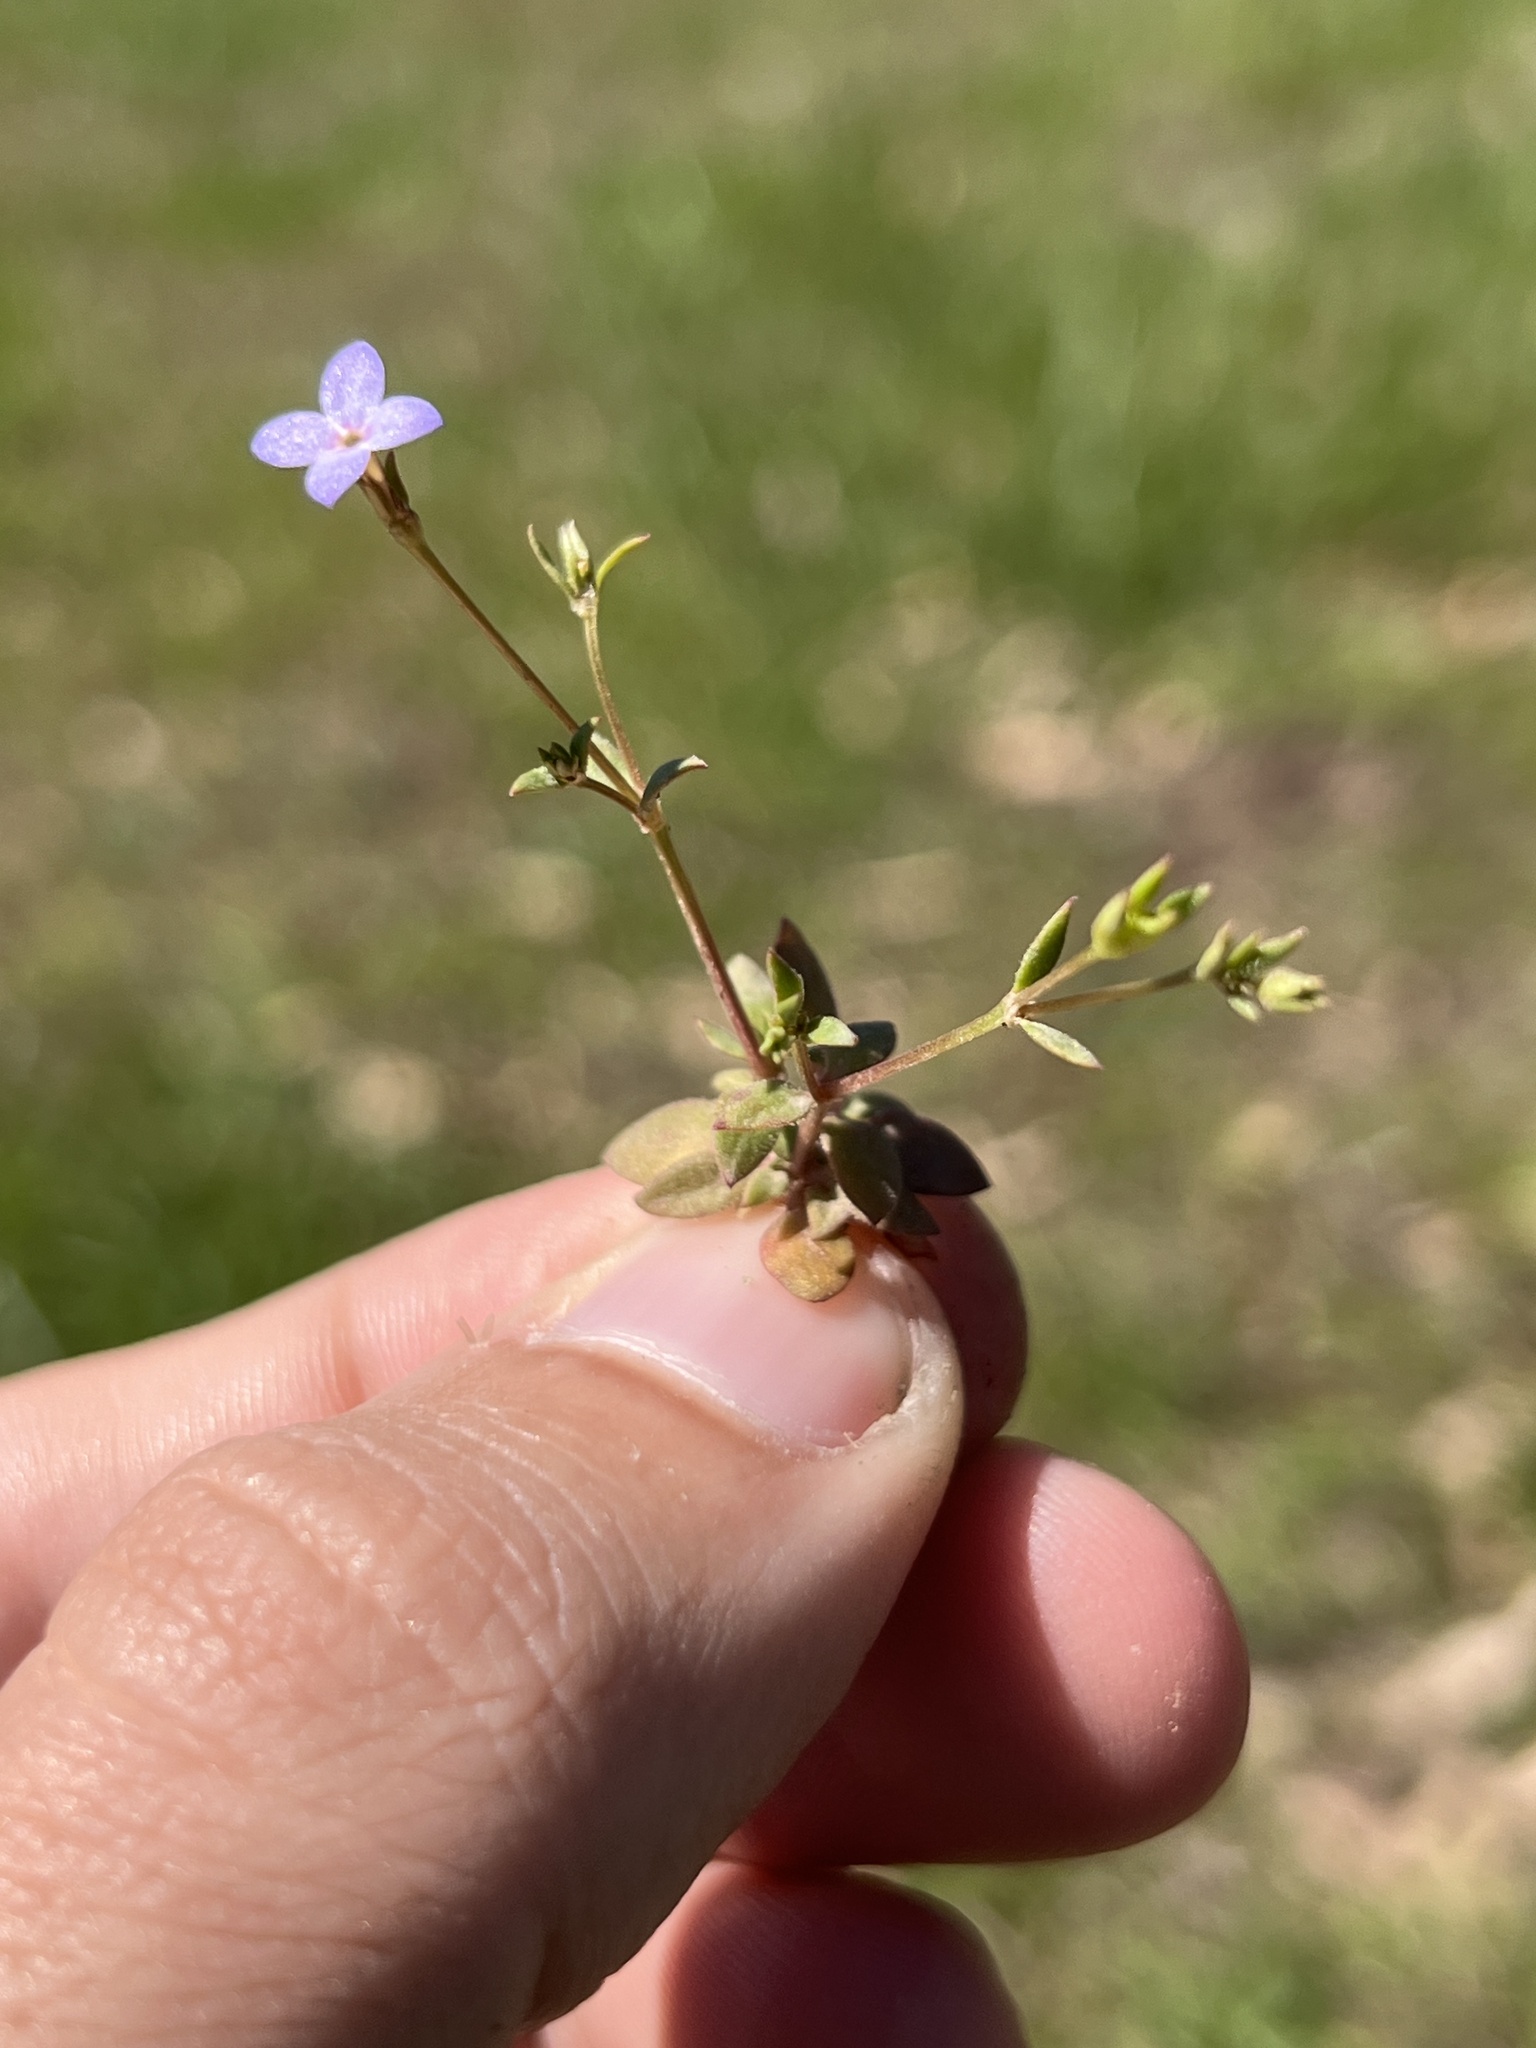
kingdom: Plantae
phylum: Tracheophyta
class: Magnoliopsida
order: Gentianales
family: Rubiaceae
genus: Houstonia
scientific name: Houstonia pusilla
